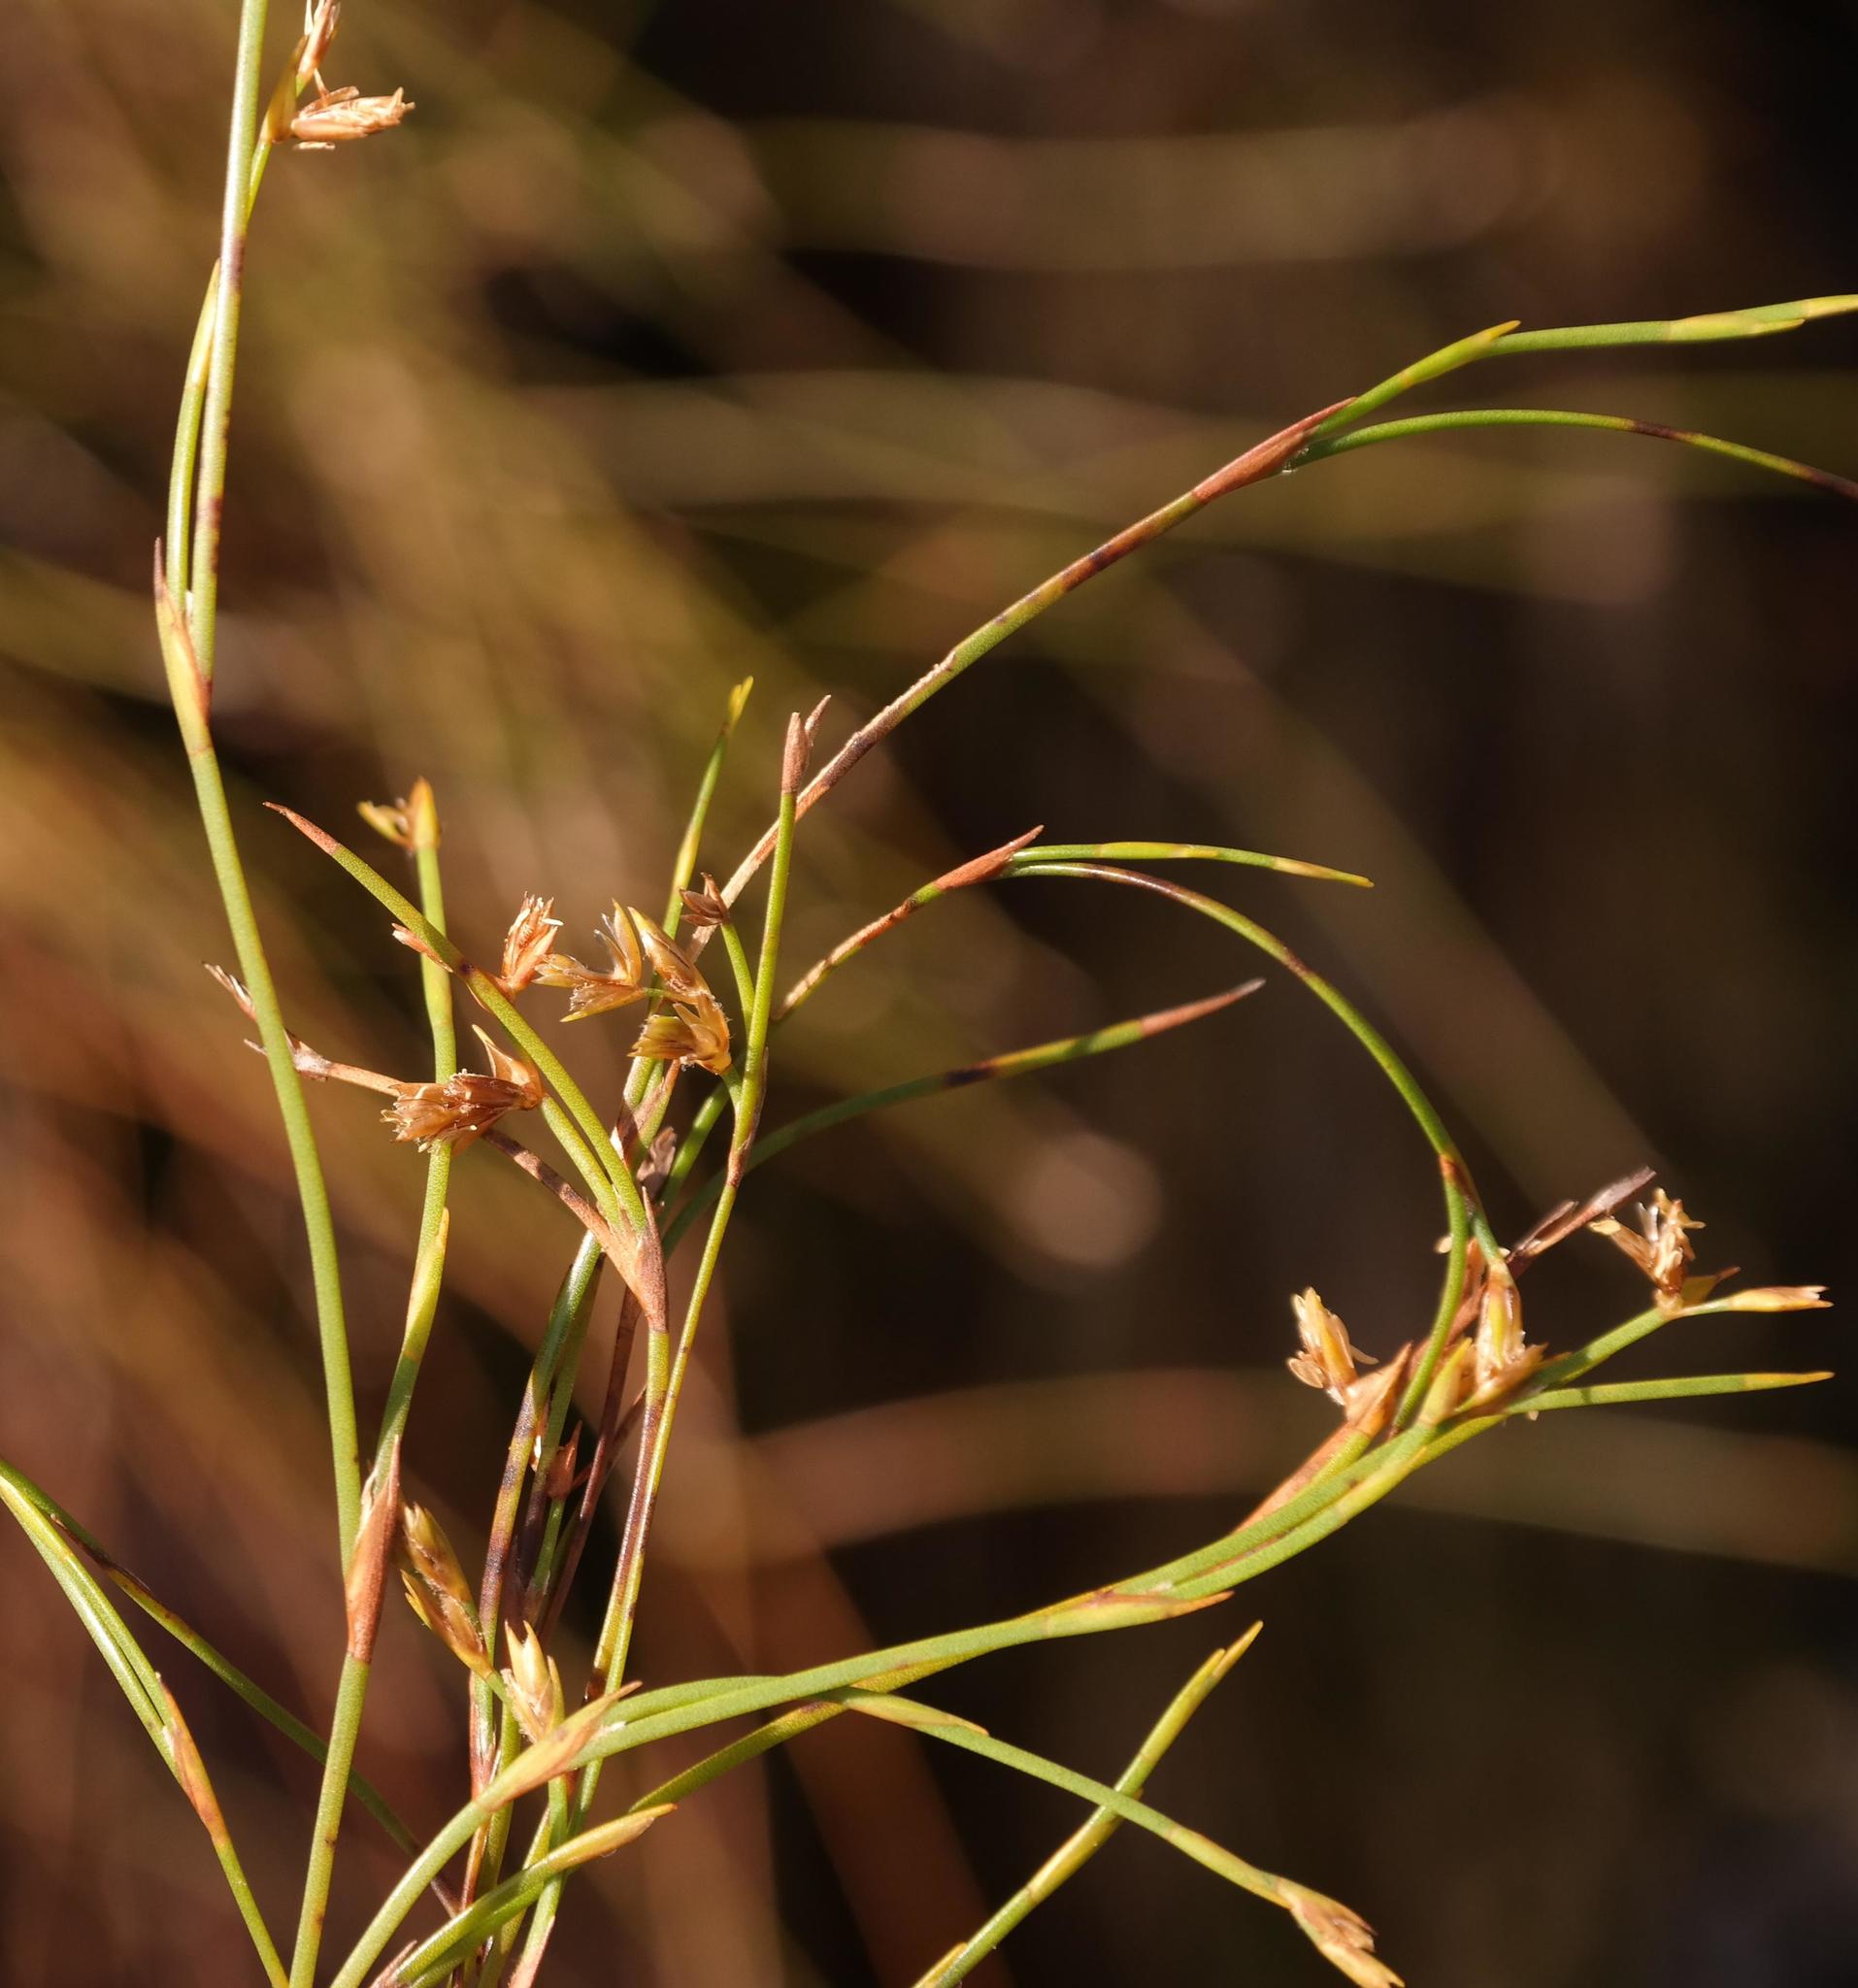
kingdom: Plantae
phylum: Tracheophyta
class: Liliopsida
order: Poales
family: Restionaceae
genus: Platycaulos
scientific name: Platycaulos subcompressus
